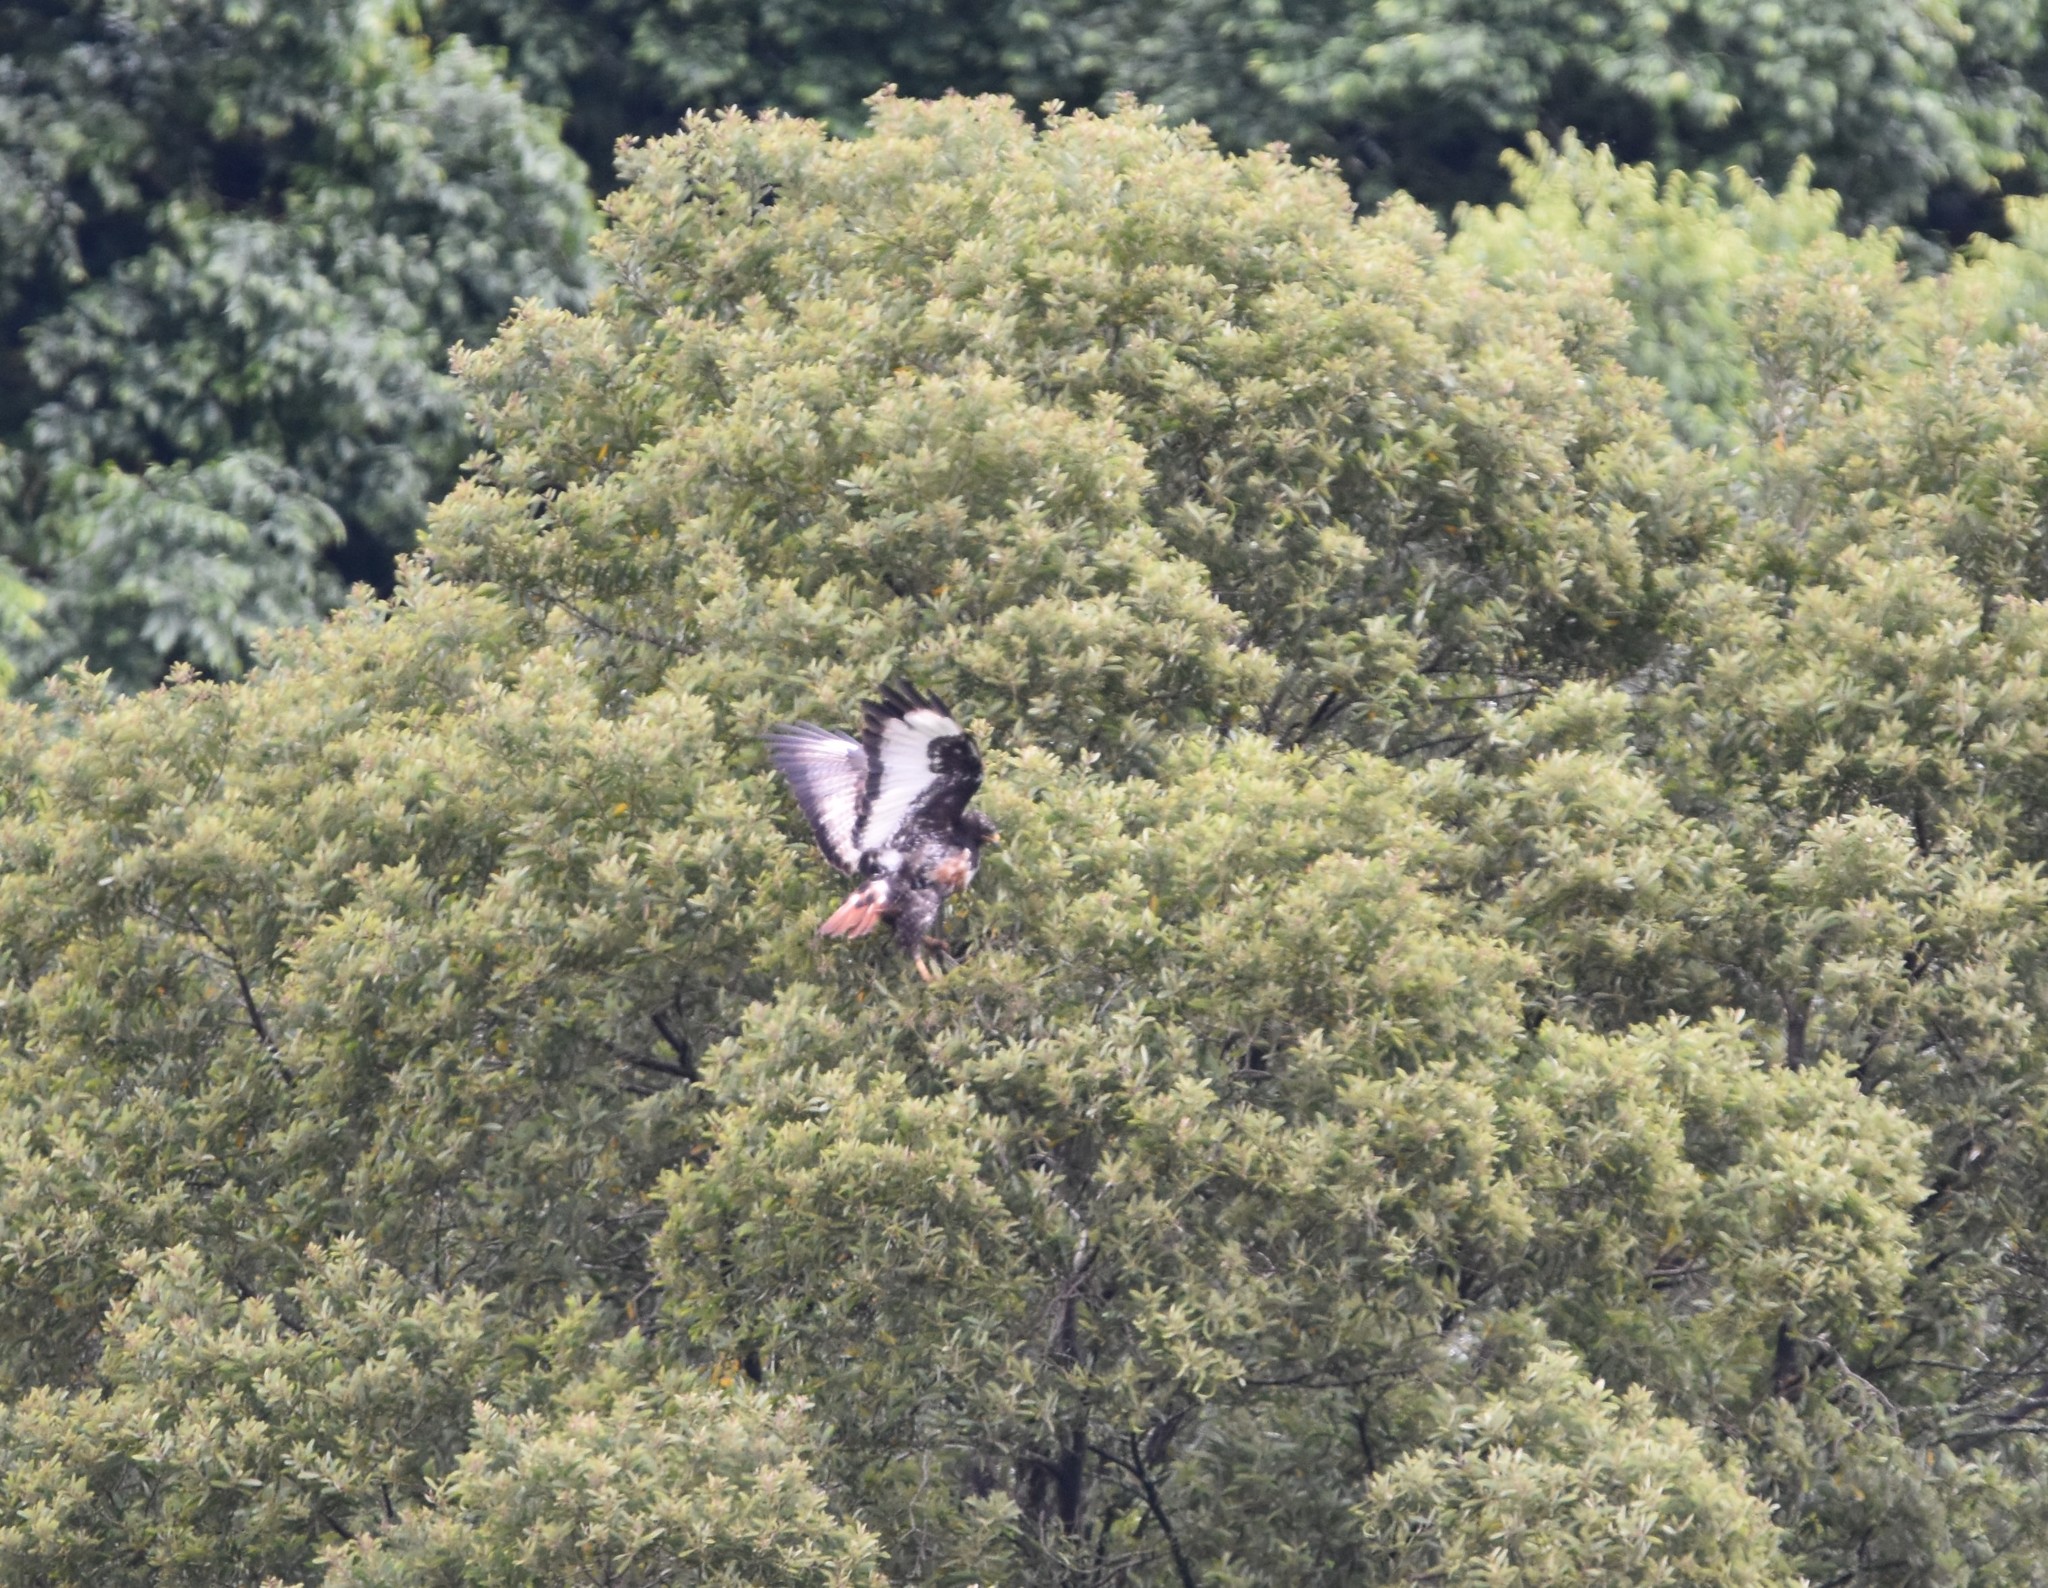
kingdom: Animalia
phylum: Chordata
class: Aves
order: Accipitriformes
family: Accipitridae
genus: Buteo
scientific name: Buteo rufofuscus
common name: Jackal buzzard
